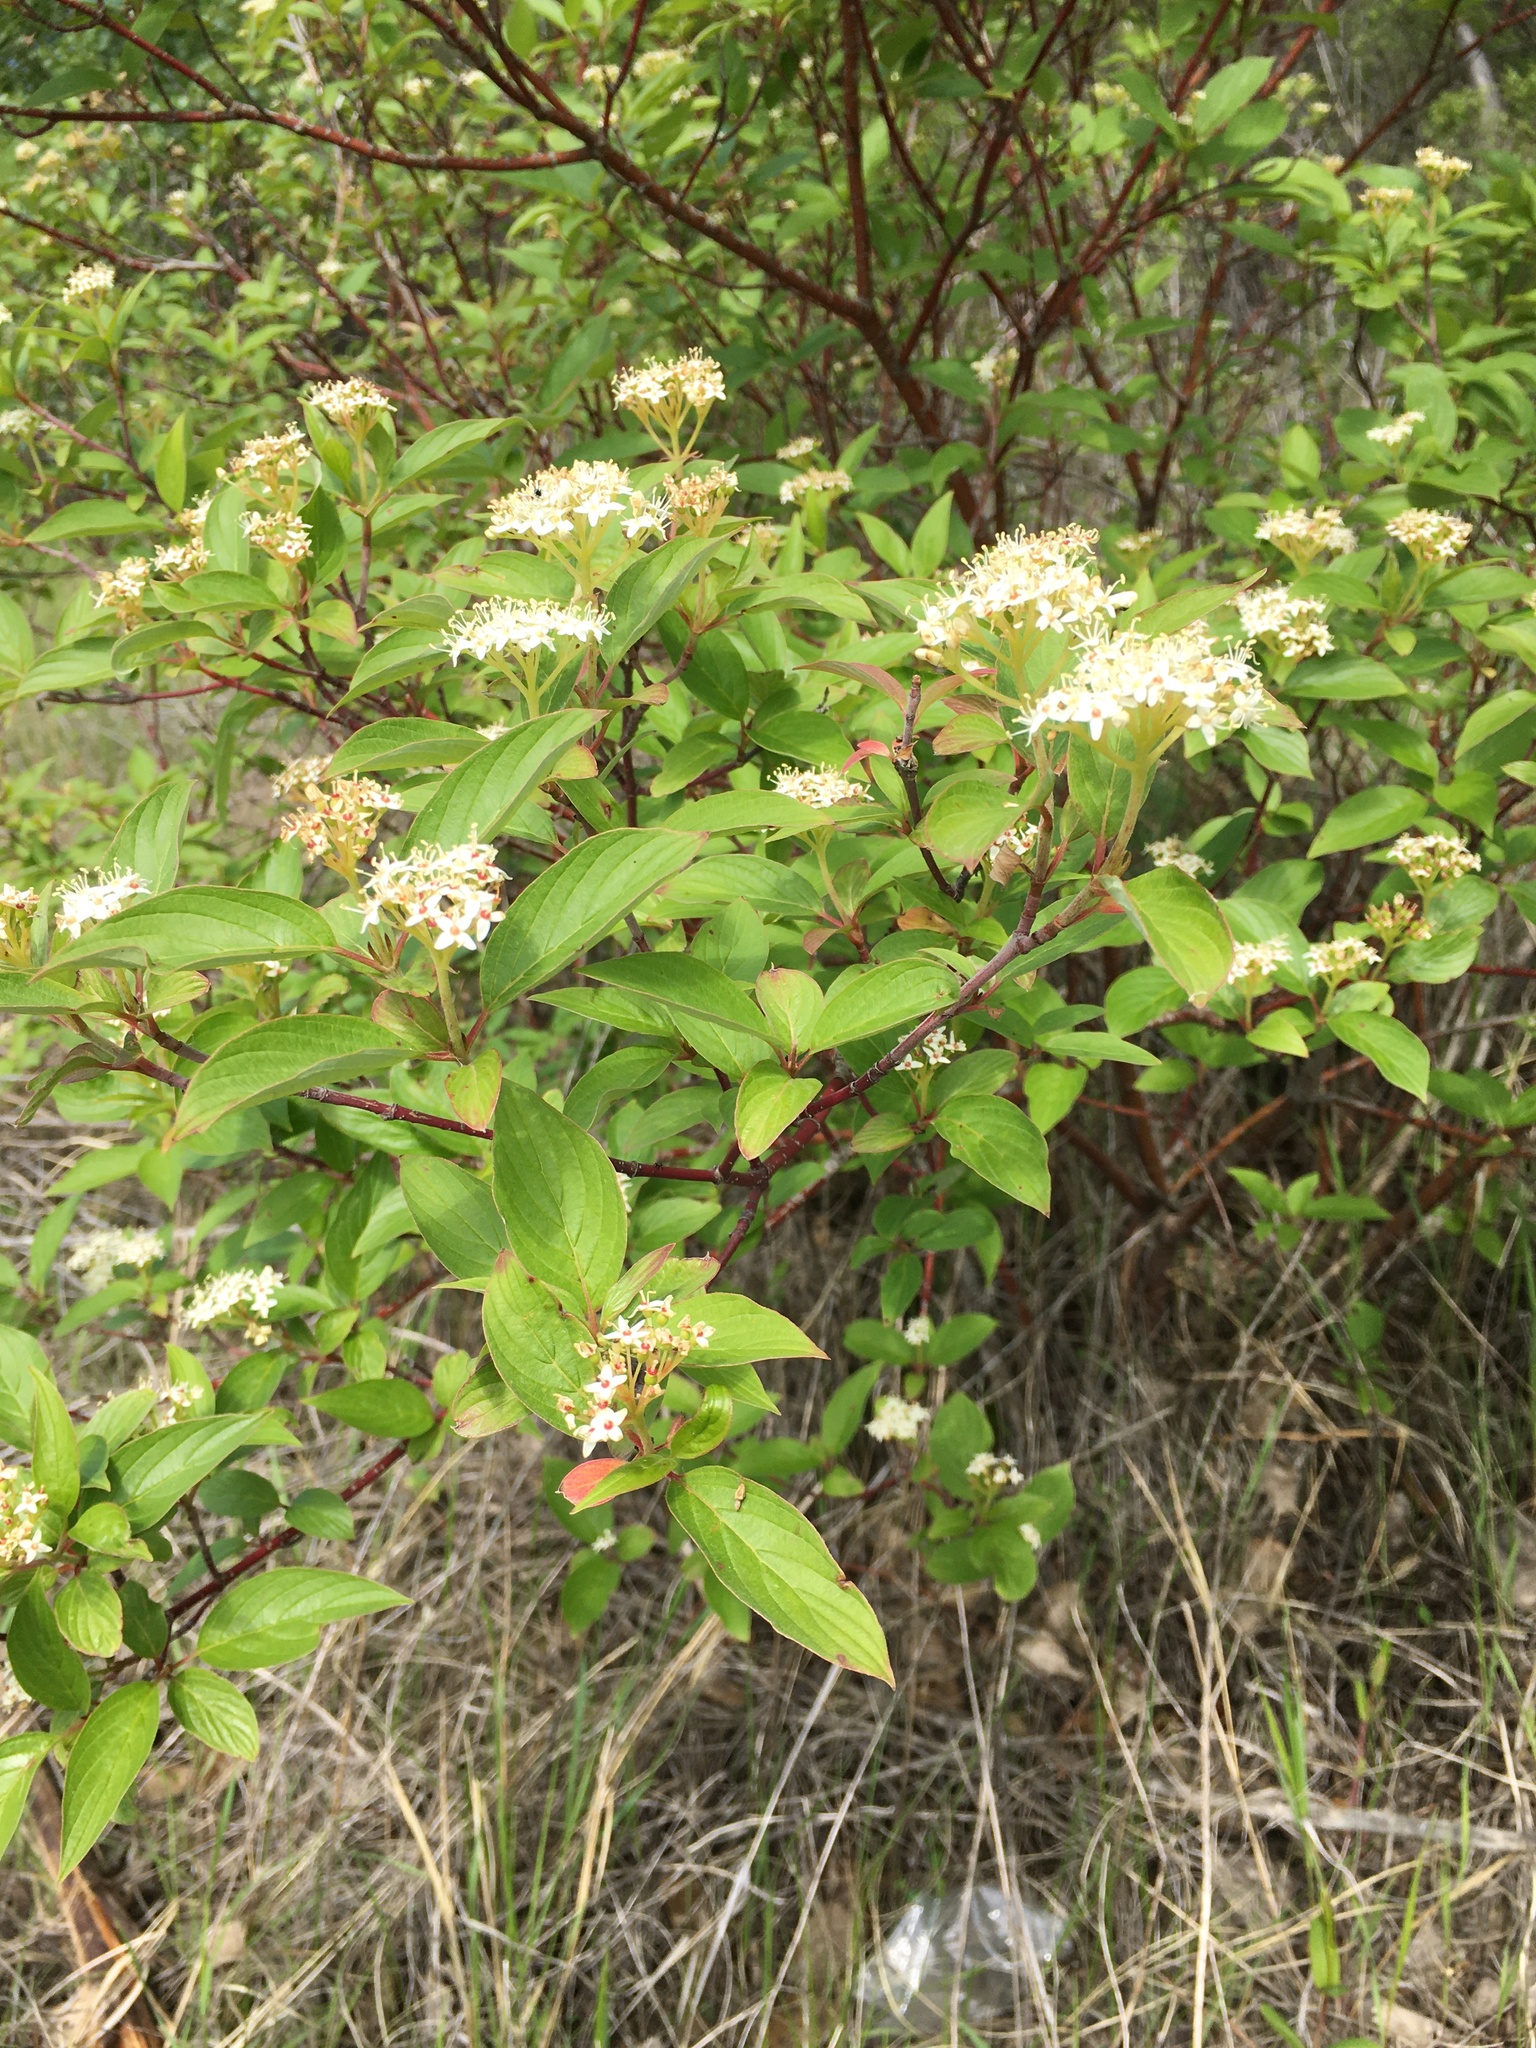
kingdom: Plantae
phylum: Tracheophyta
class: Magnoliopsida
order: Cornales
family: Cornaceae
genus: Cornus
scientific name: Cornus sericea
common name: Red-osier dogwood
